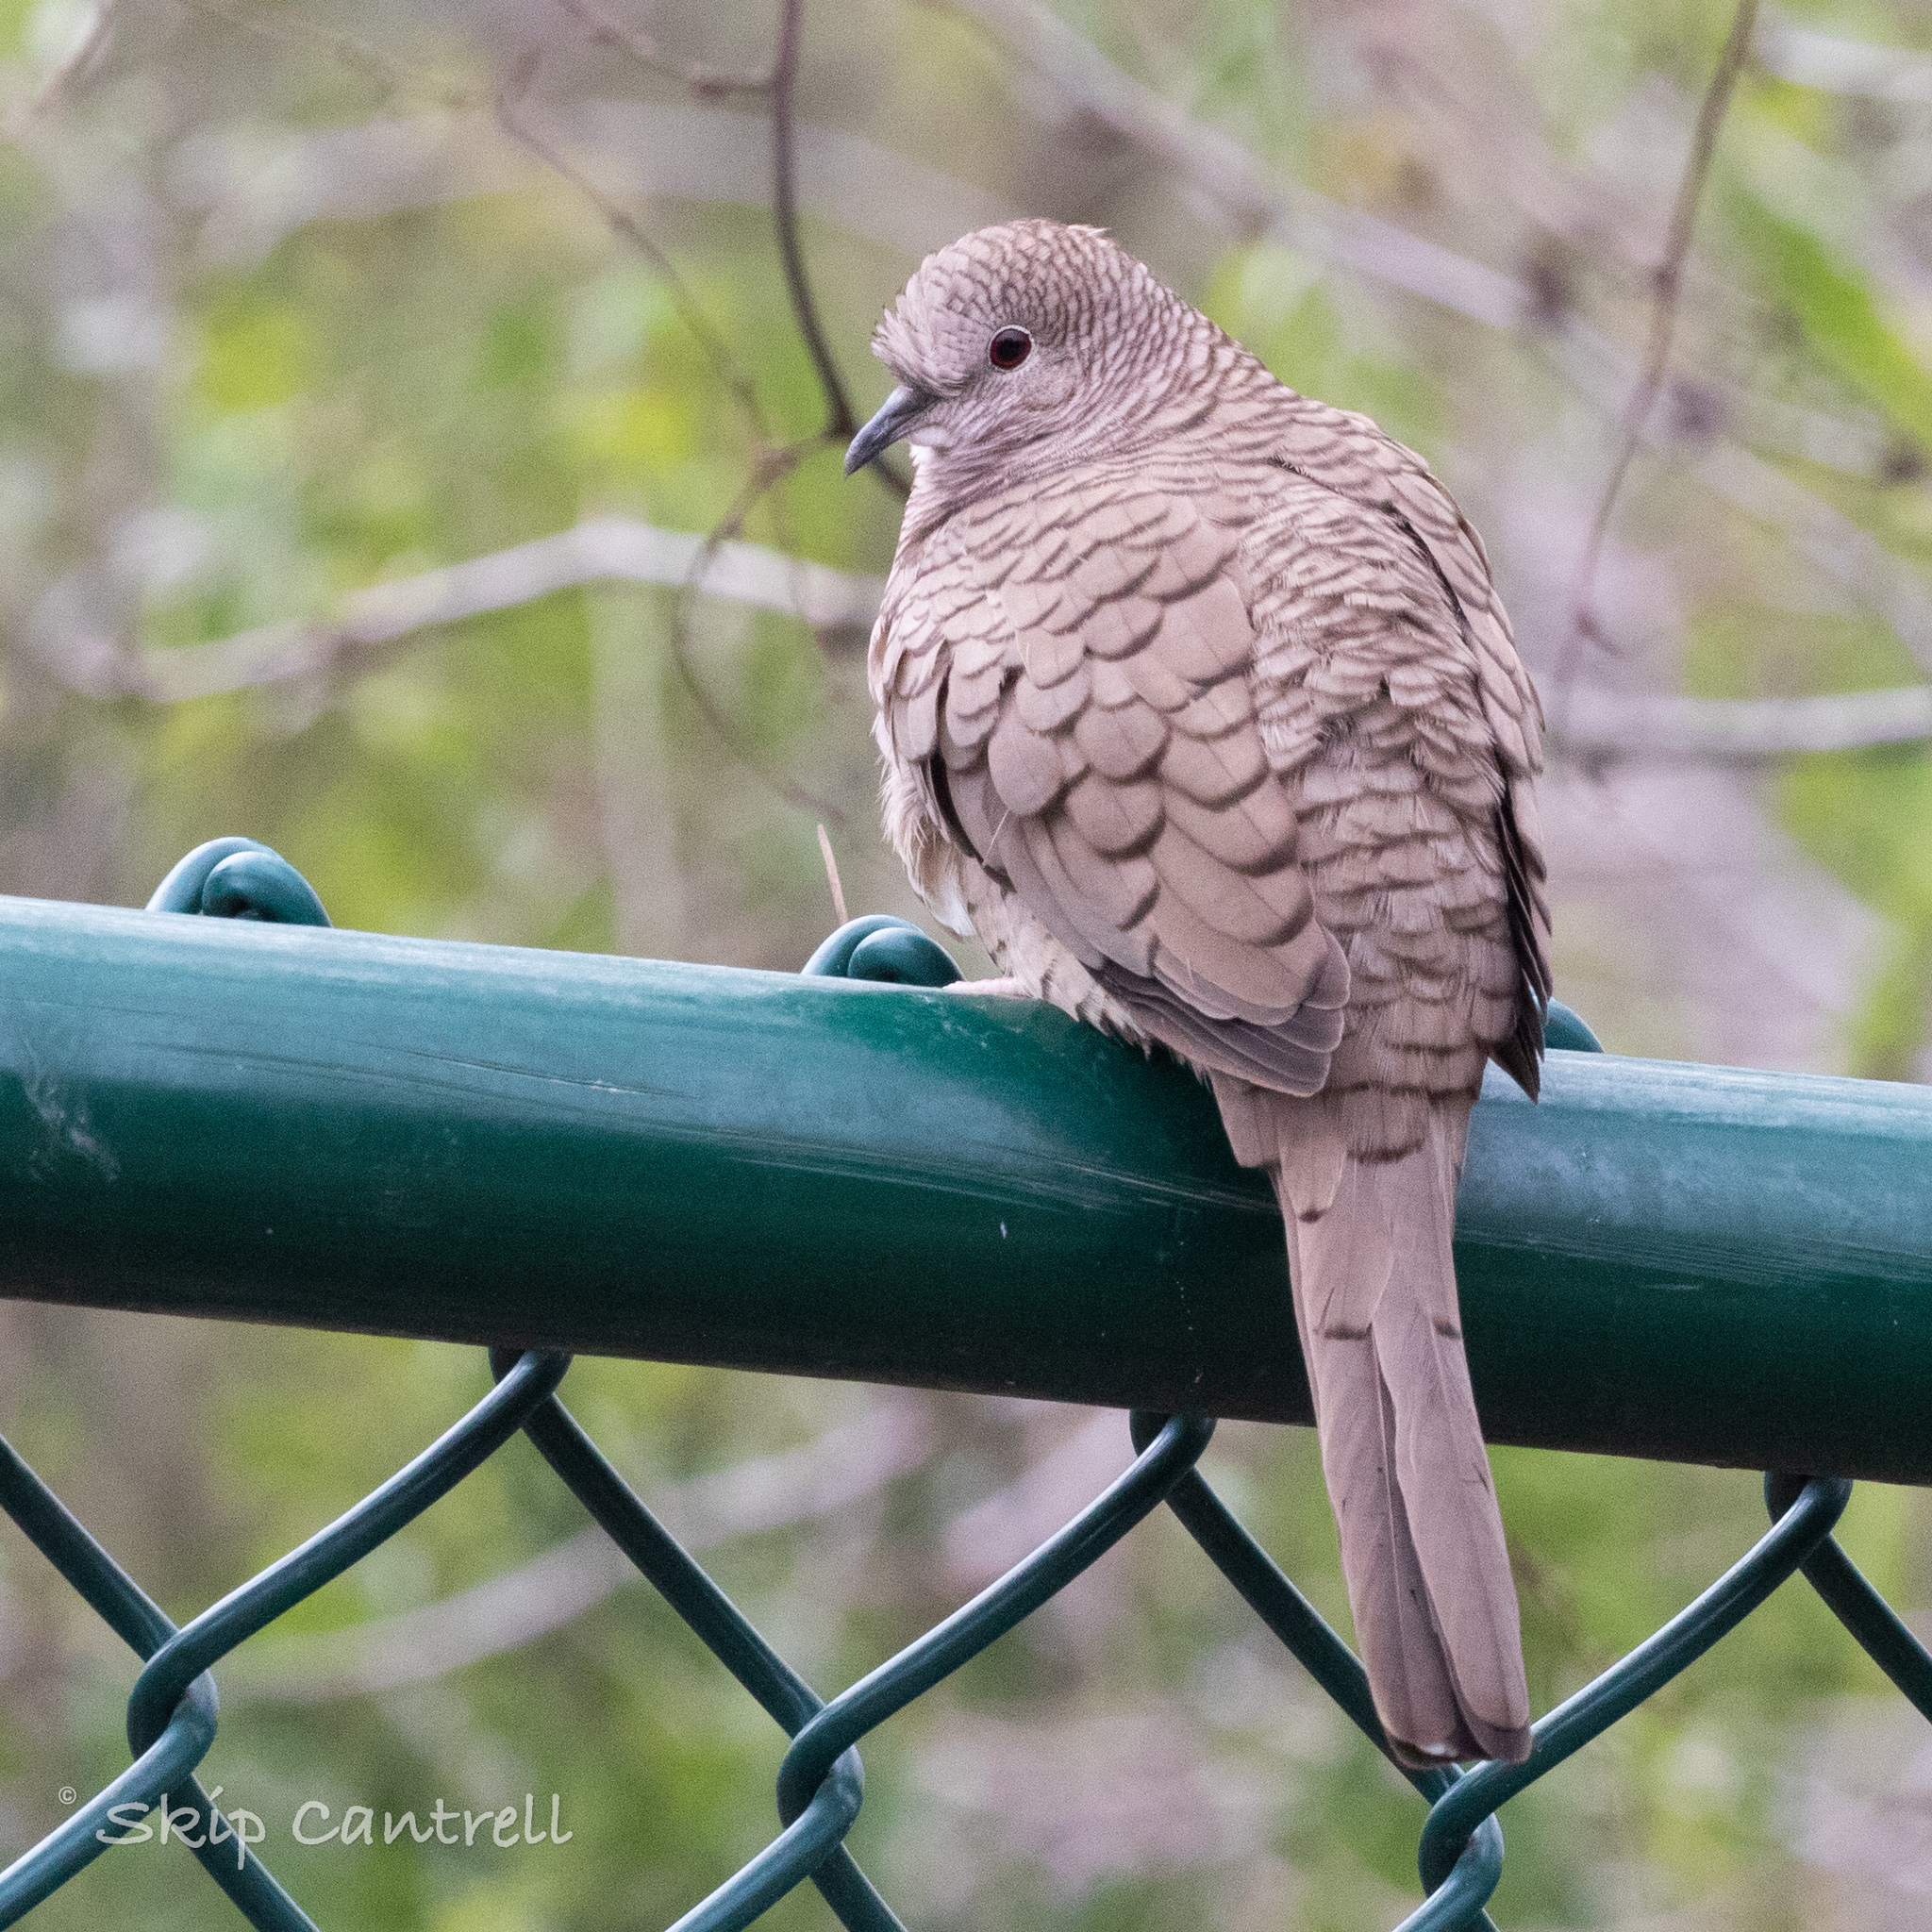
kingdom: Animalia
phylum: Chordata
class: Aves
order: Columbiformes
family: Columbidae
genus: Columbina
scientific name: Columbina inca
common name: Inca dove
